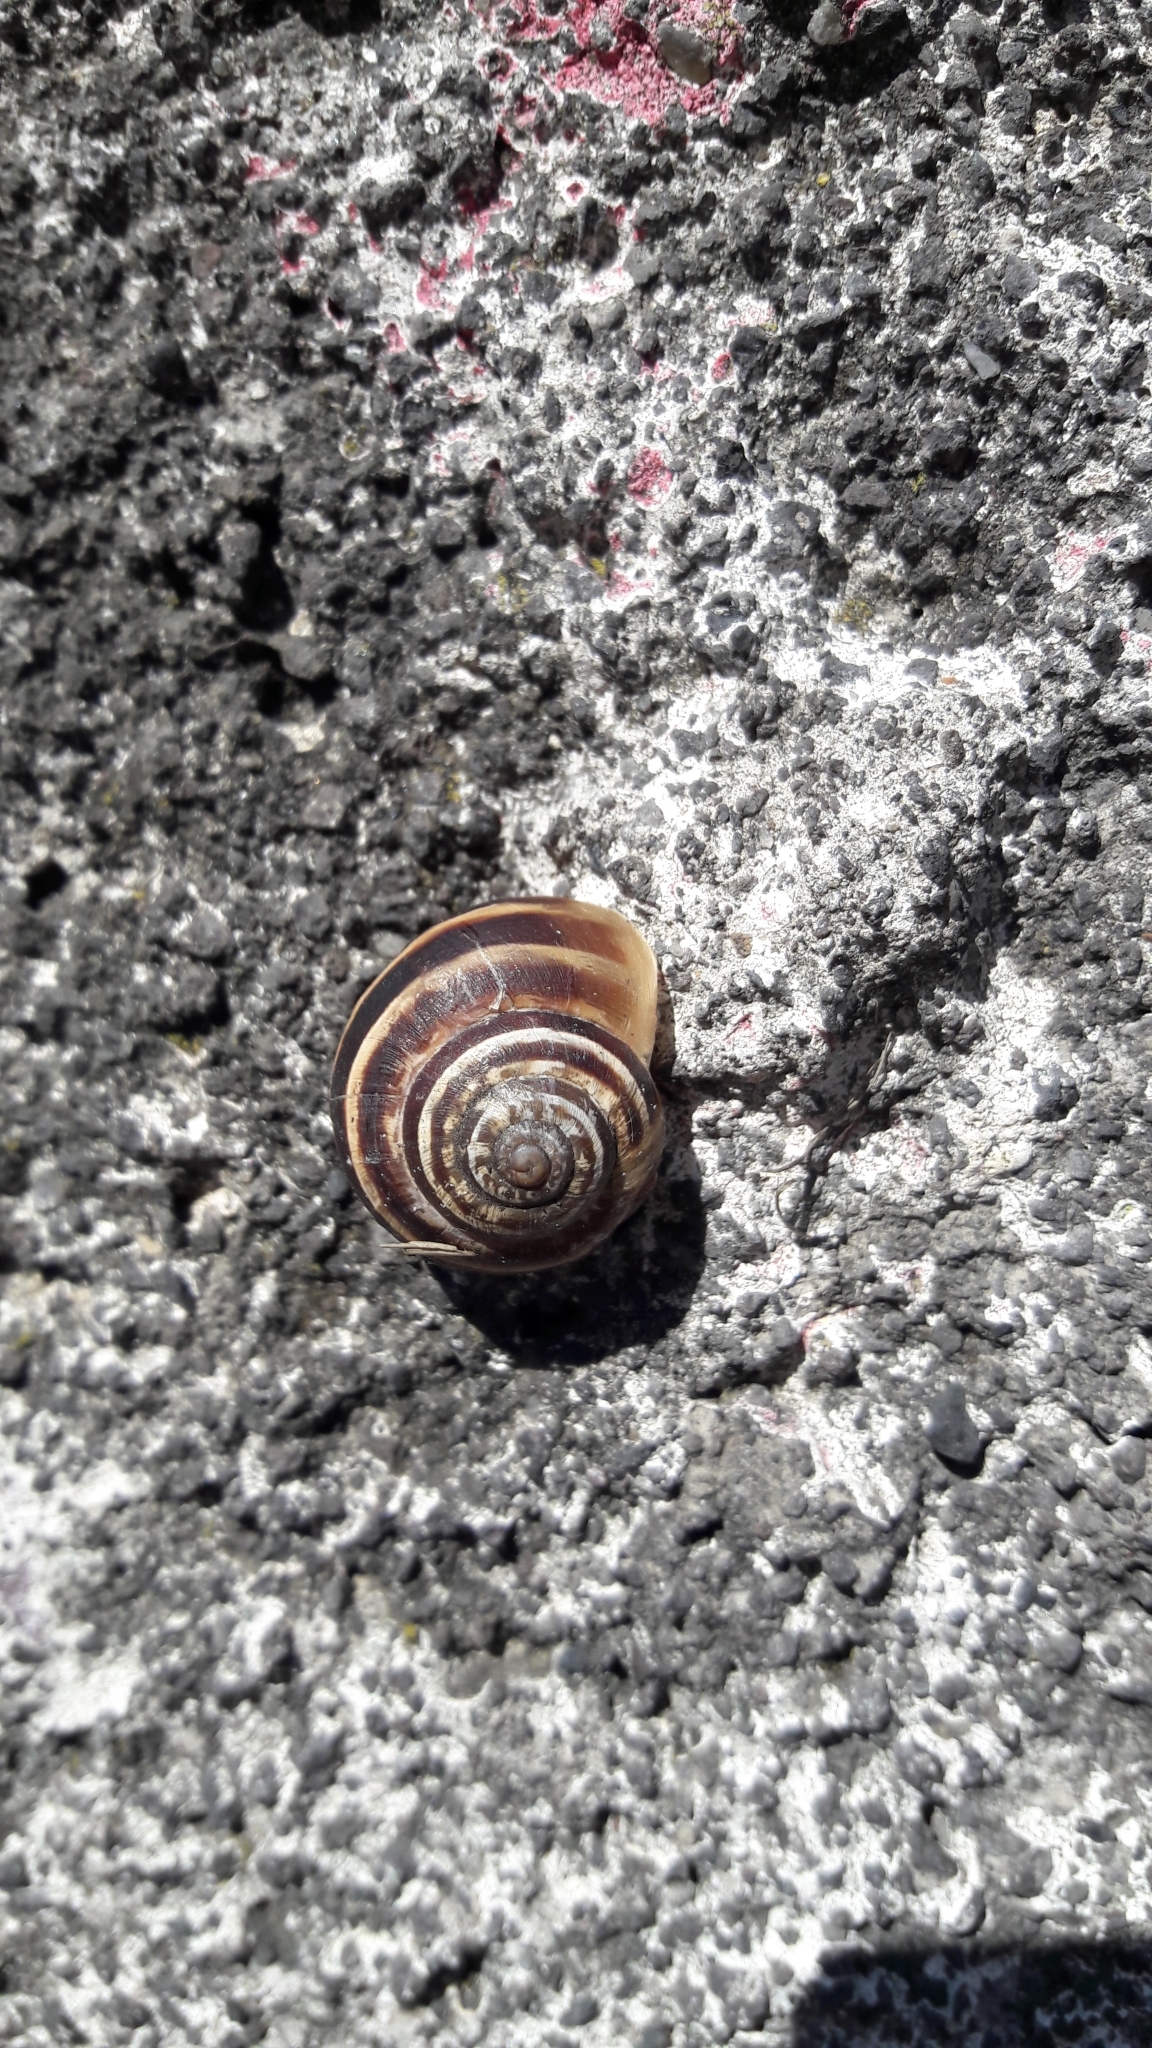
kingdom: Animalia
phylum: Mollusca
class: Gastropoda
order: Stylommatophora
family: Helicidae
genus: Eobania
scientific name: Eobania vermiculata
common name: Chocolateband snail
